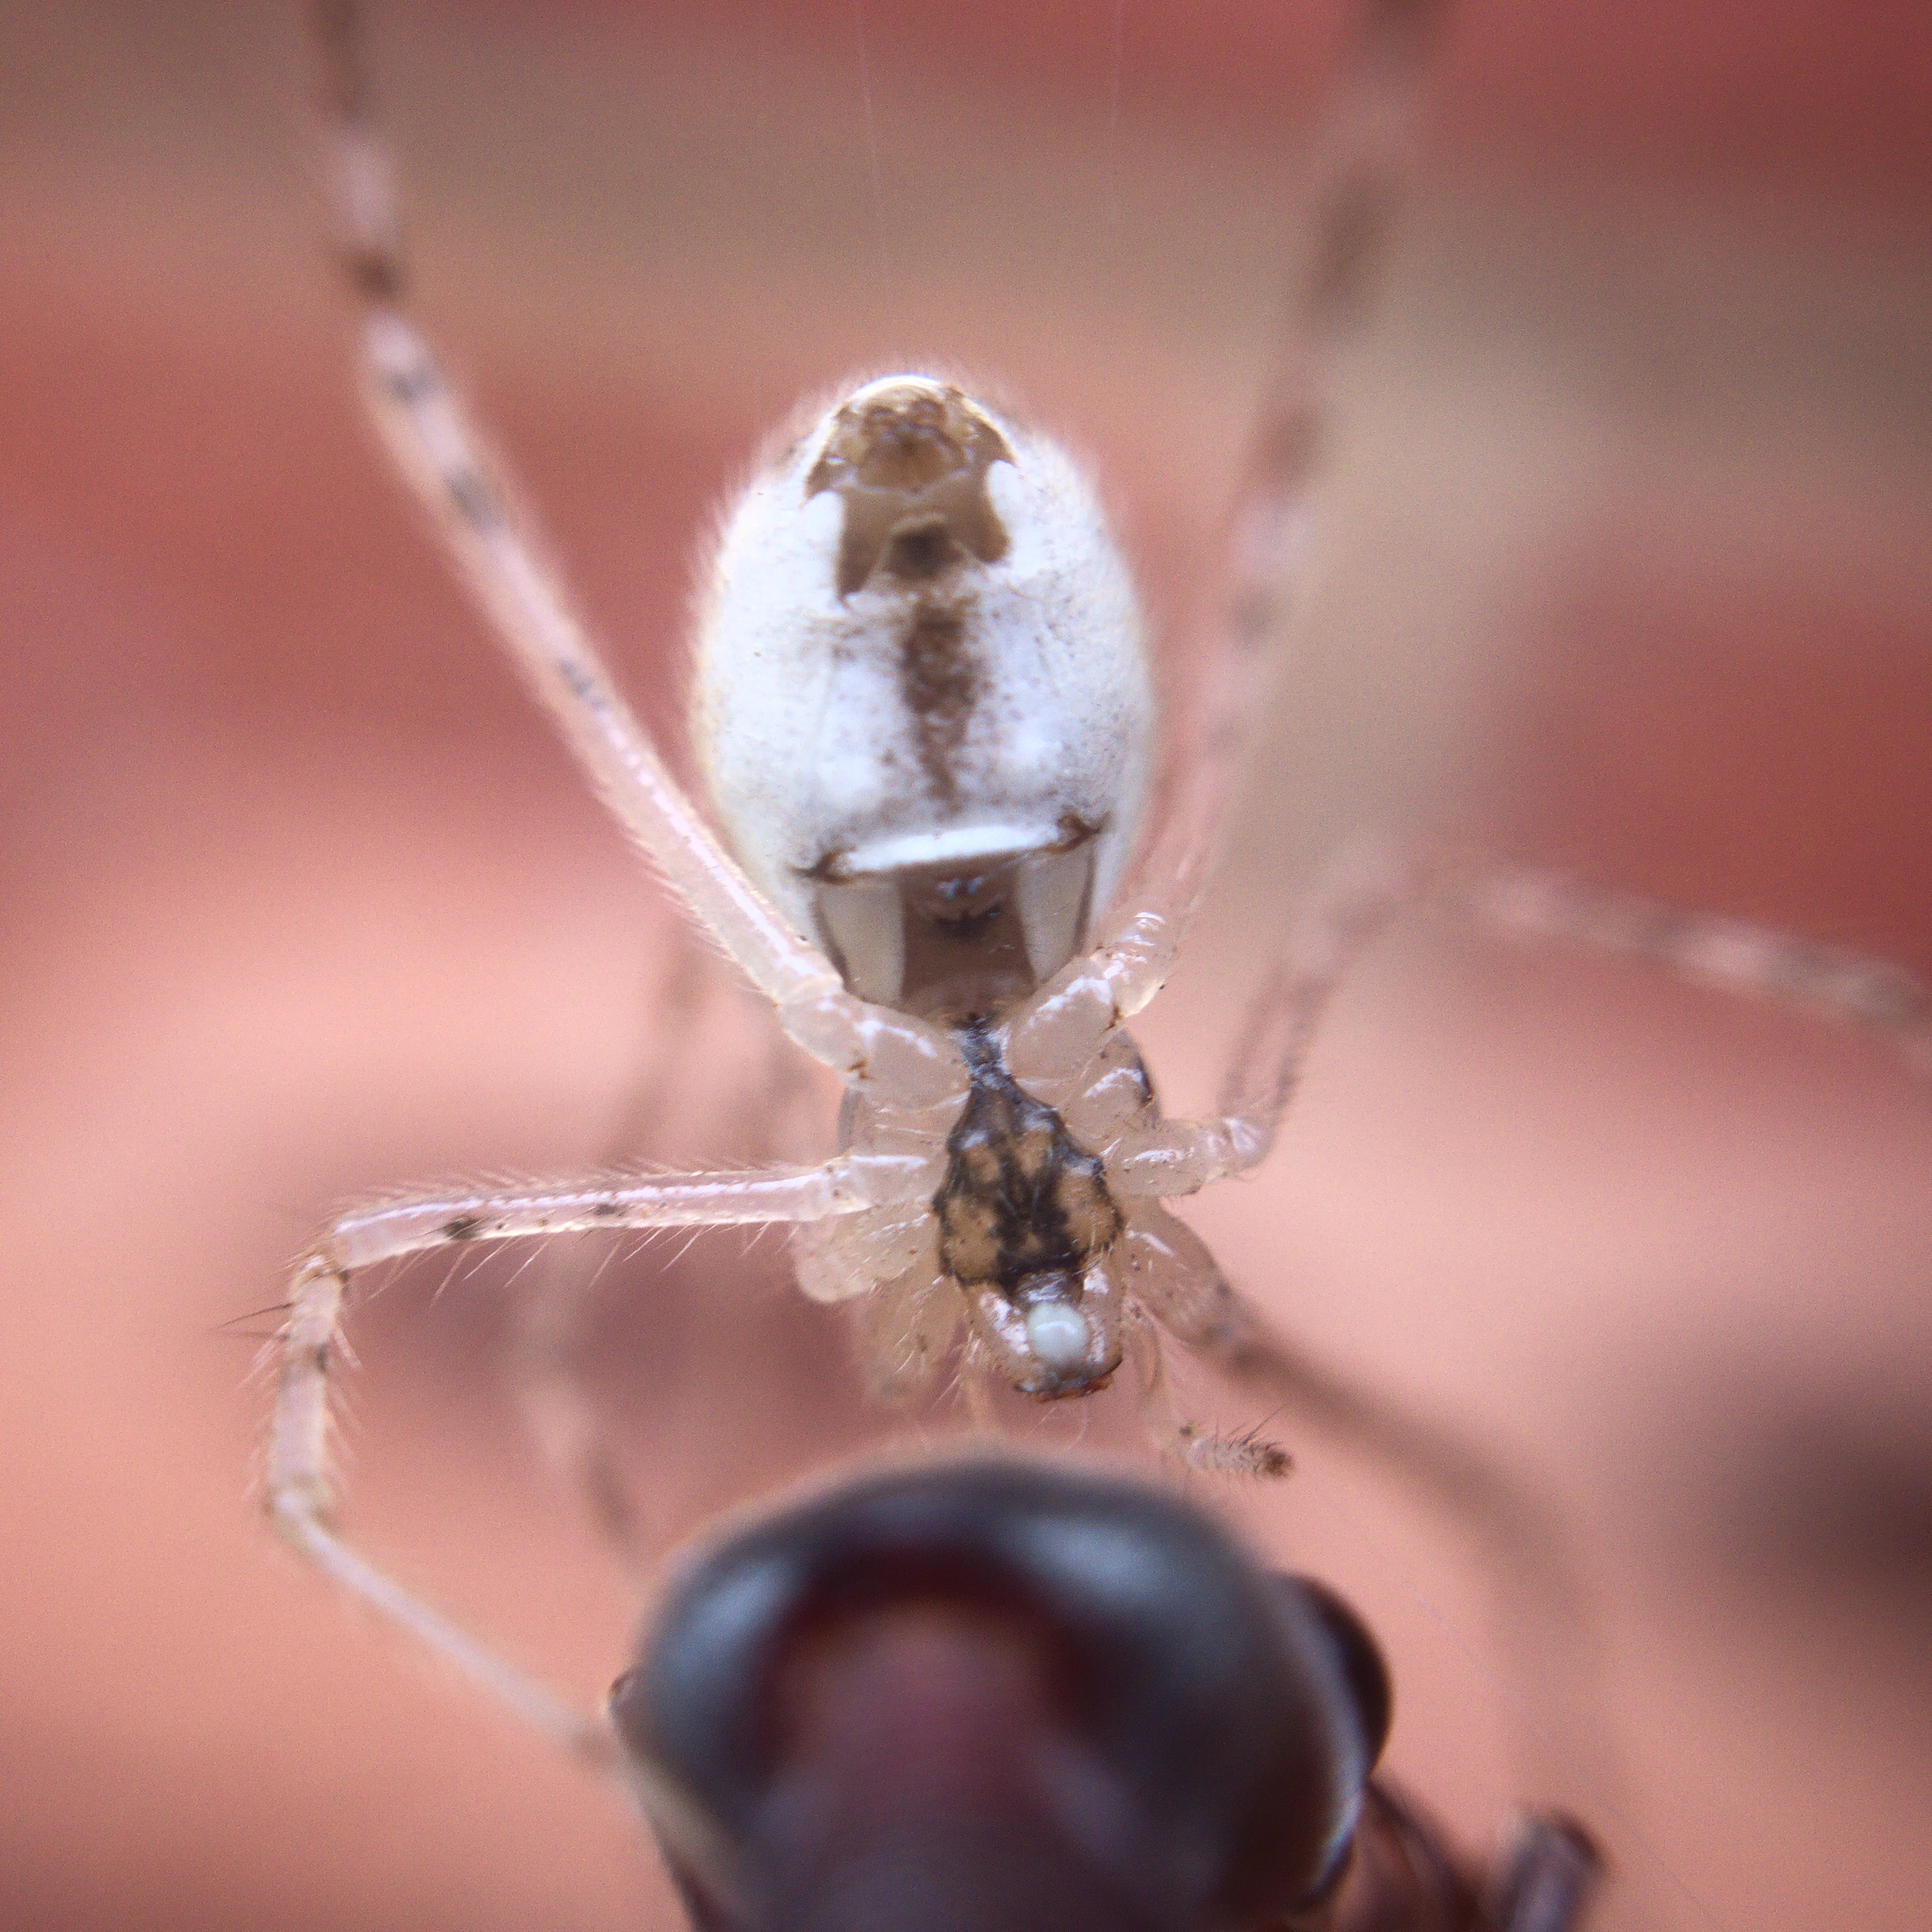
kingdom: Animalia
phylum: Arthropoda
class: Arachnida
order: Araneae
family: Theridiidae
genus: Cryptachaea
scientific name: Cryptachaea gigantipes
